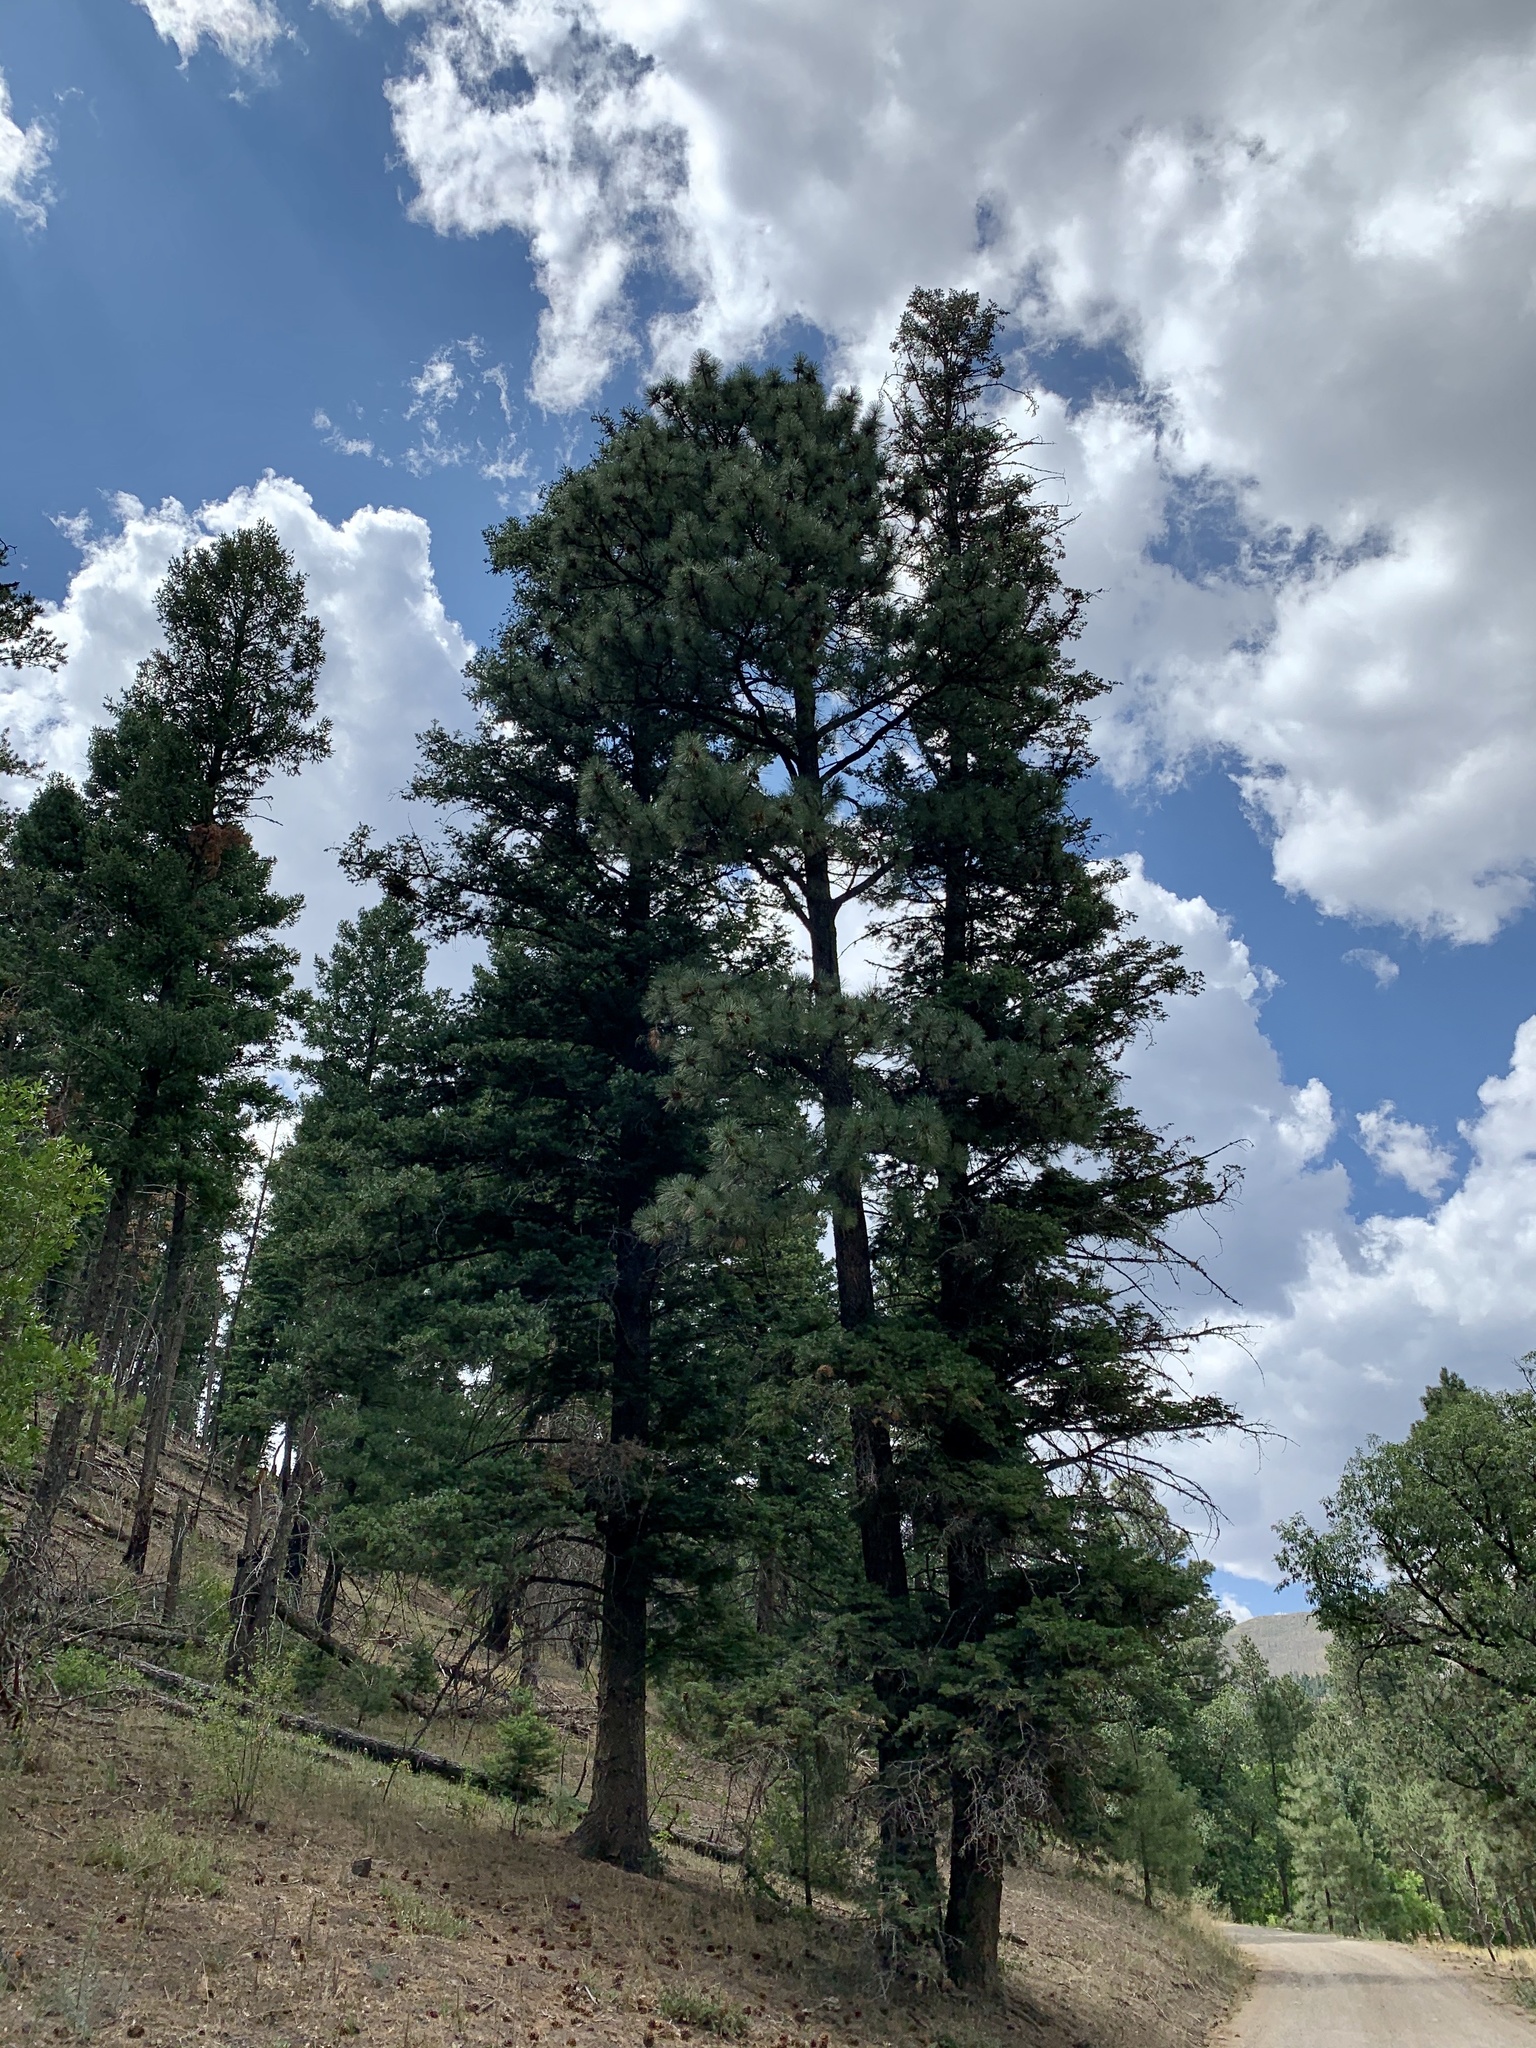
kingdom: Plantae
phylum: Tracheophyta
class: Pinopsida
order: Pinales
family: Pinaceae
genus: Pinus
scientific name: Pinus ponderosa
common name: Western yellow-pine
